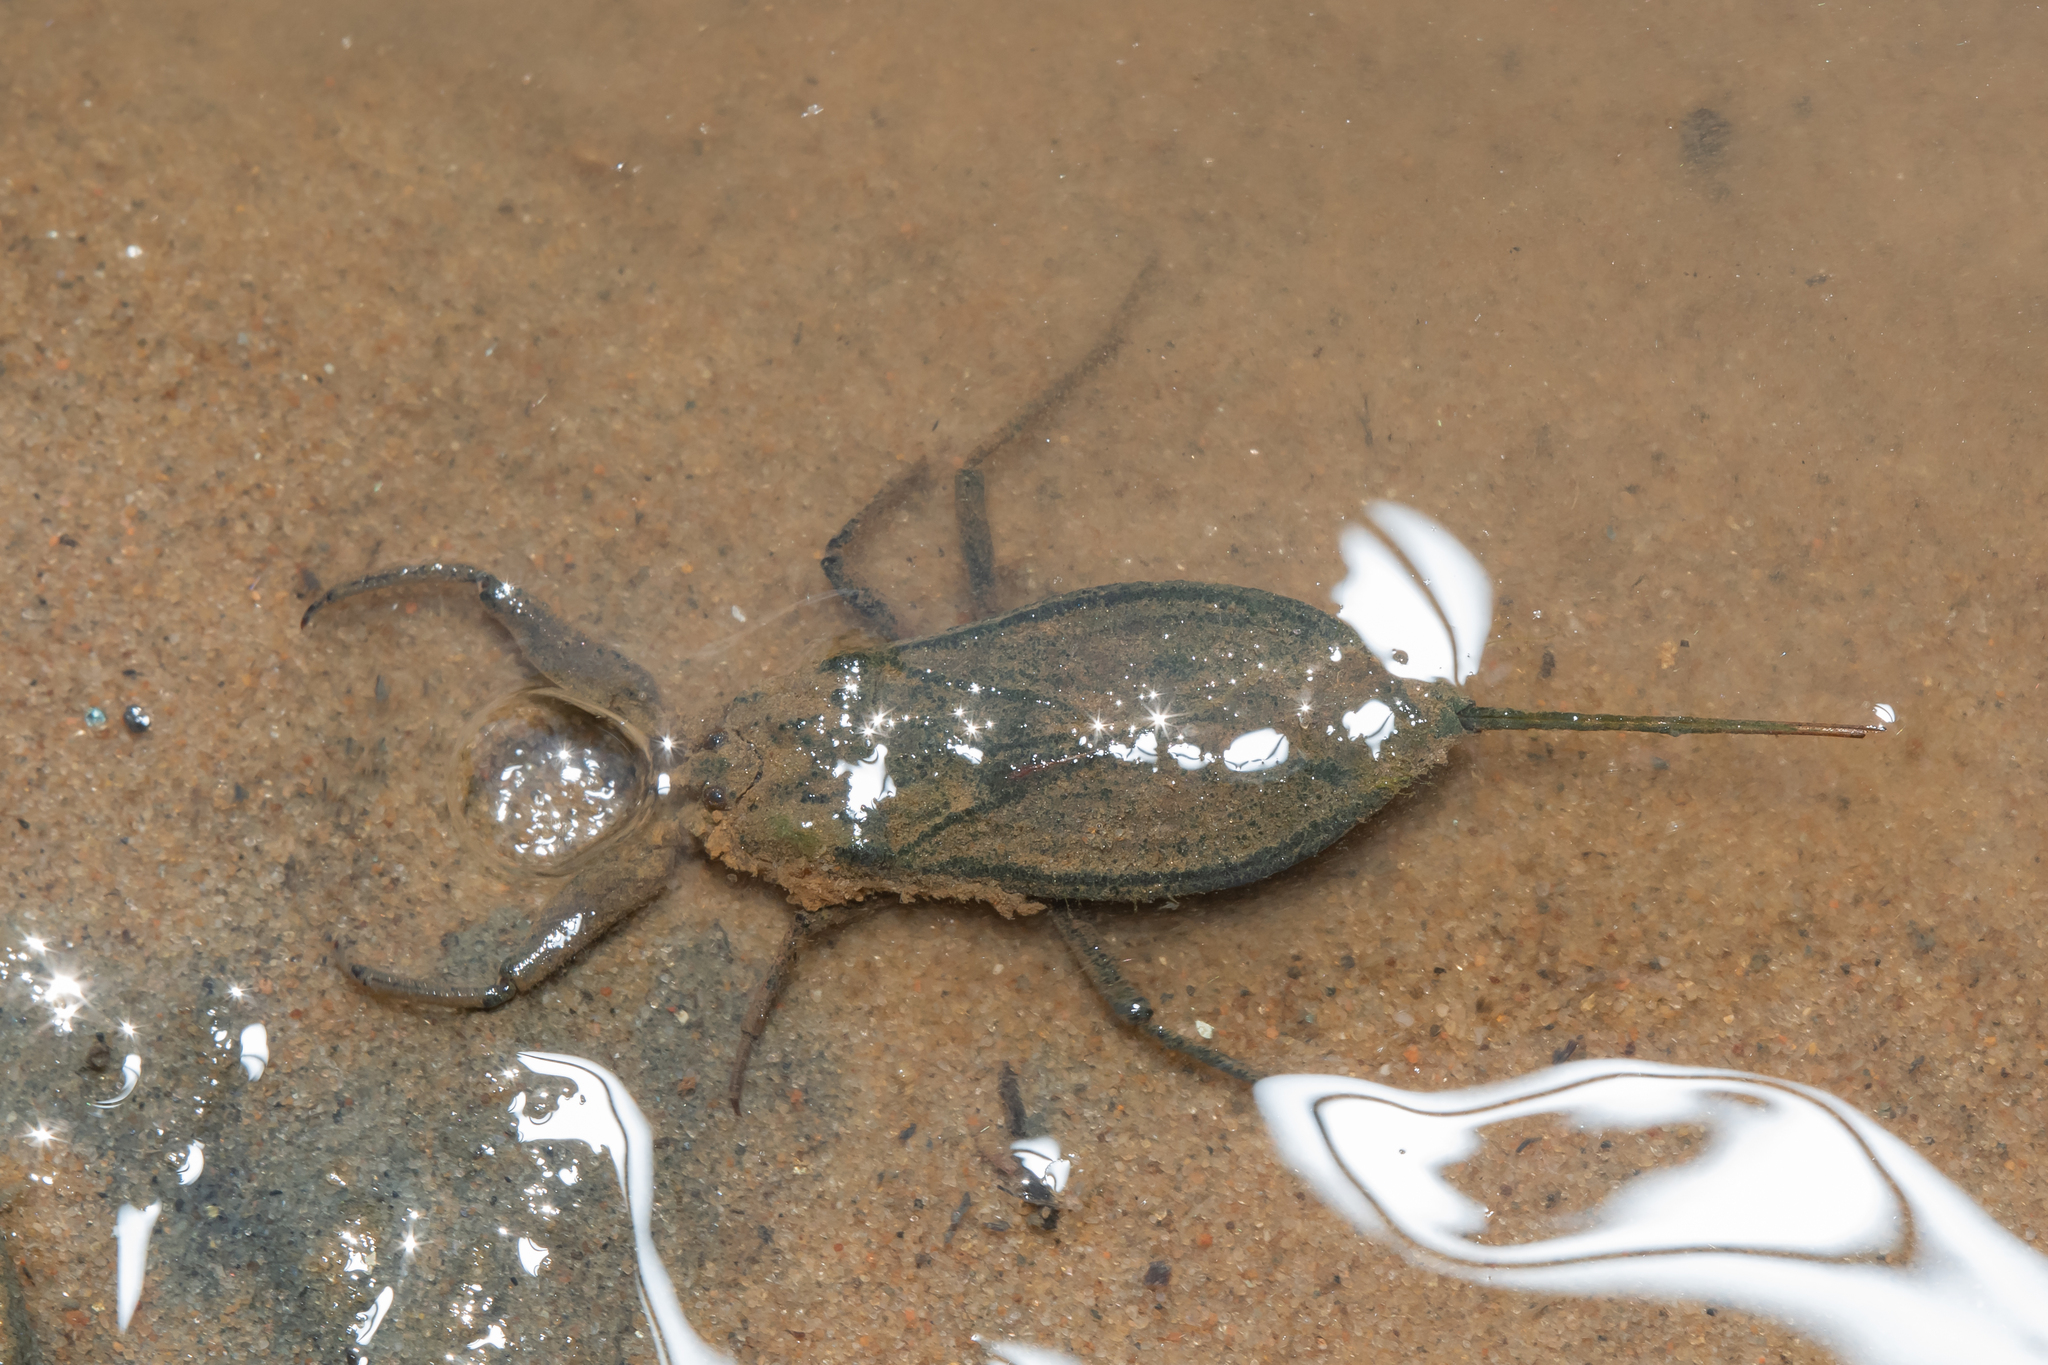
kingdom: Animalia
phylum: Arthropoda
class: Insecta
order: Hemiptera
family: Nepidae
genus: Nepa
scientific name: Nepa cinerea
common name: Water scorpion
